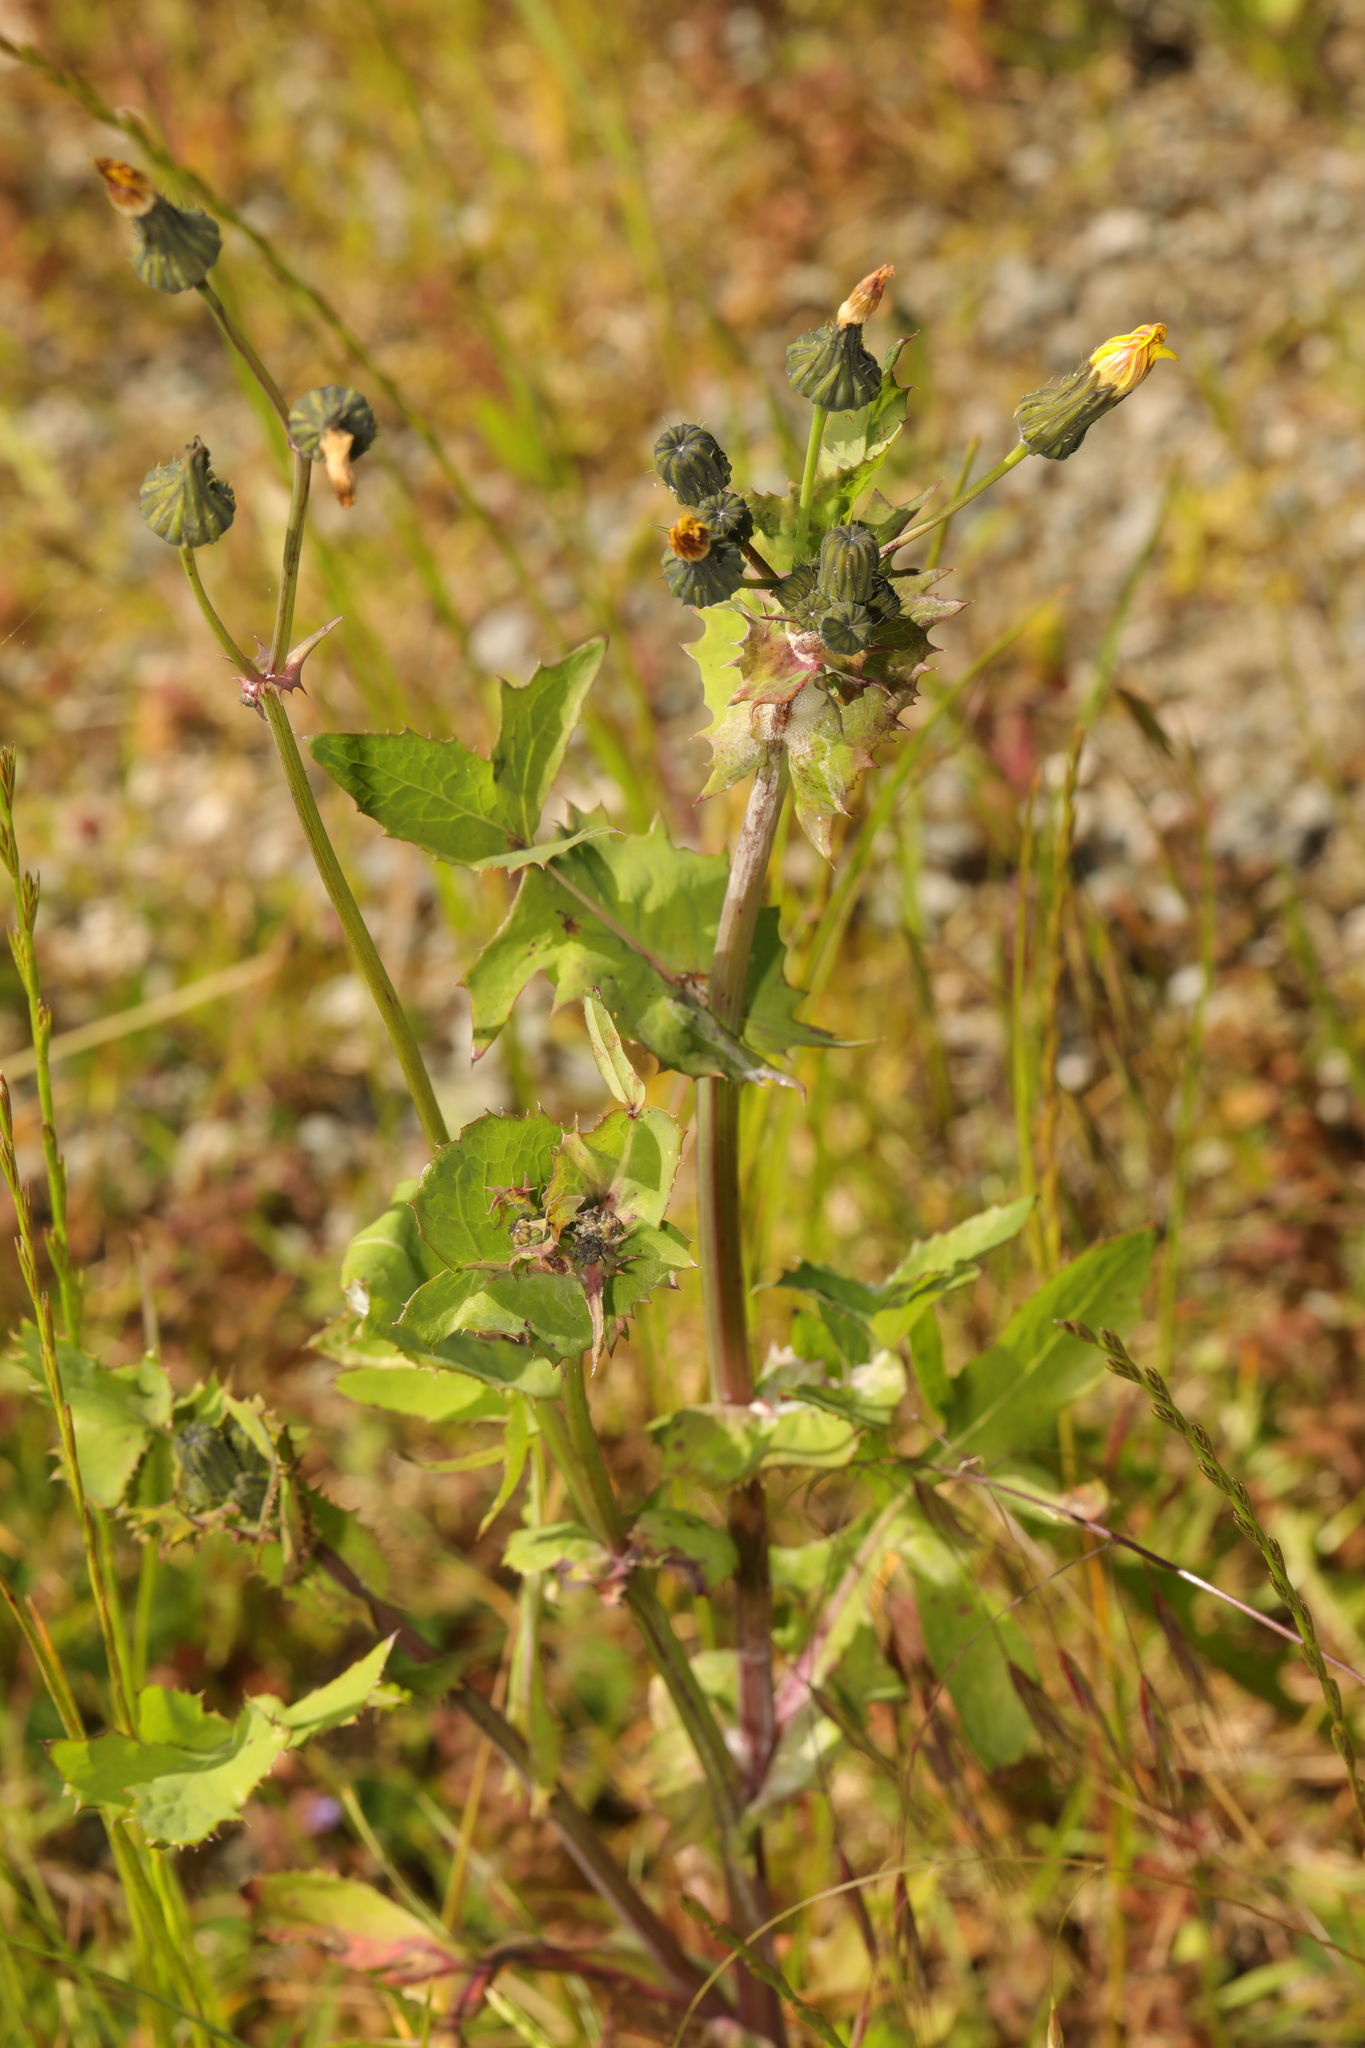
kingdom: Plantae
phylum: Tracheophyta
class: Magnoliopsida
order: Asterales
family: Asteraceae
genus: Sonchus
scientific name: Sonchus oleraceus
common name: Common sowthistle
